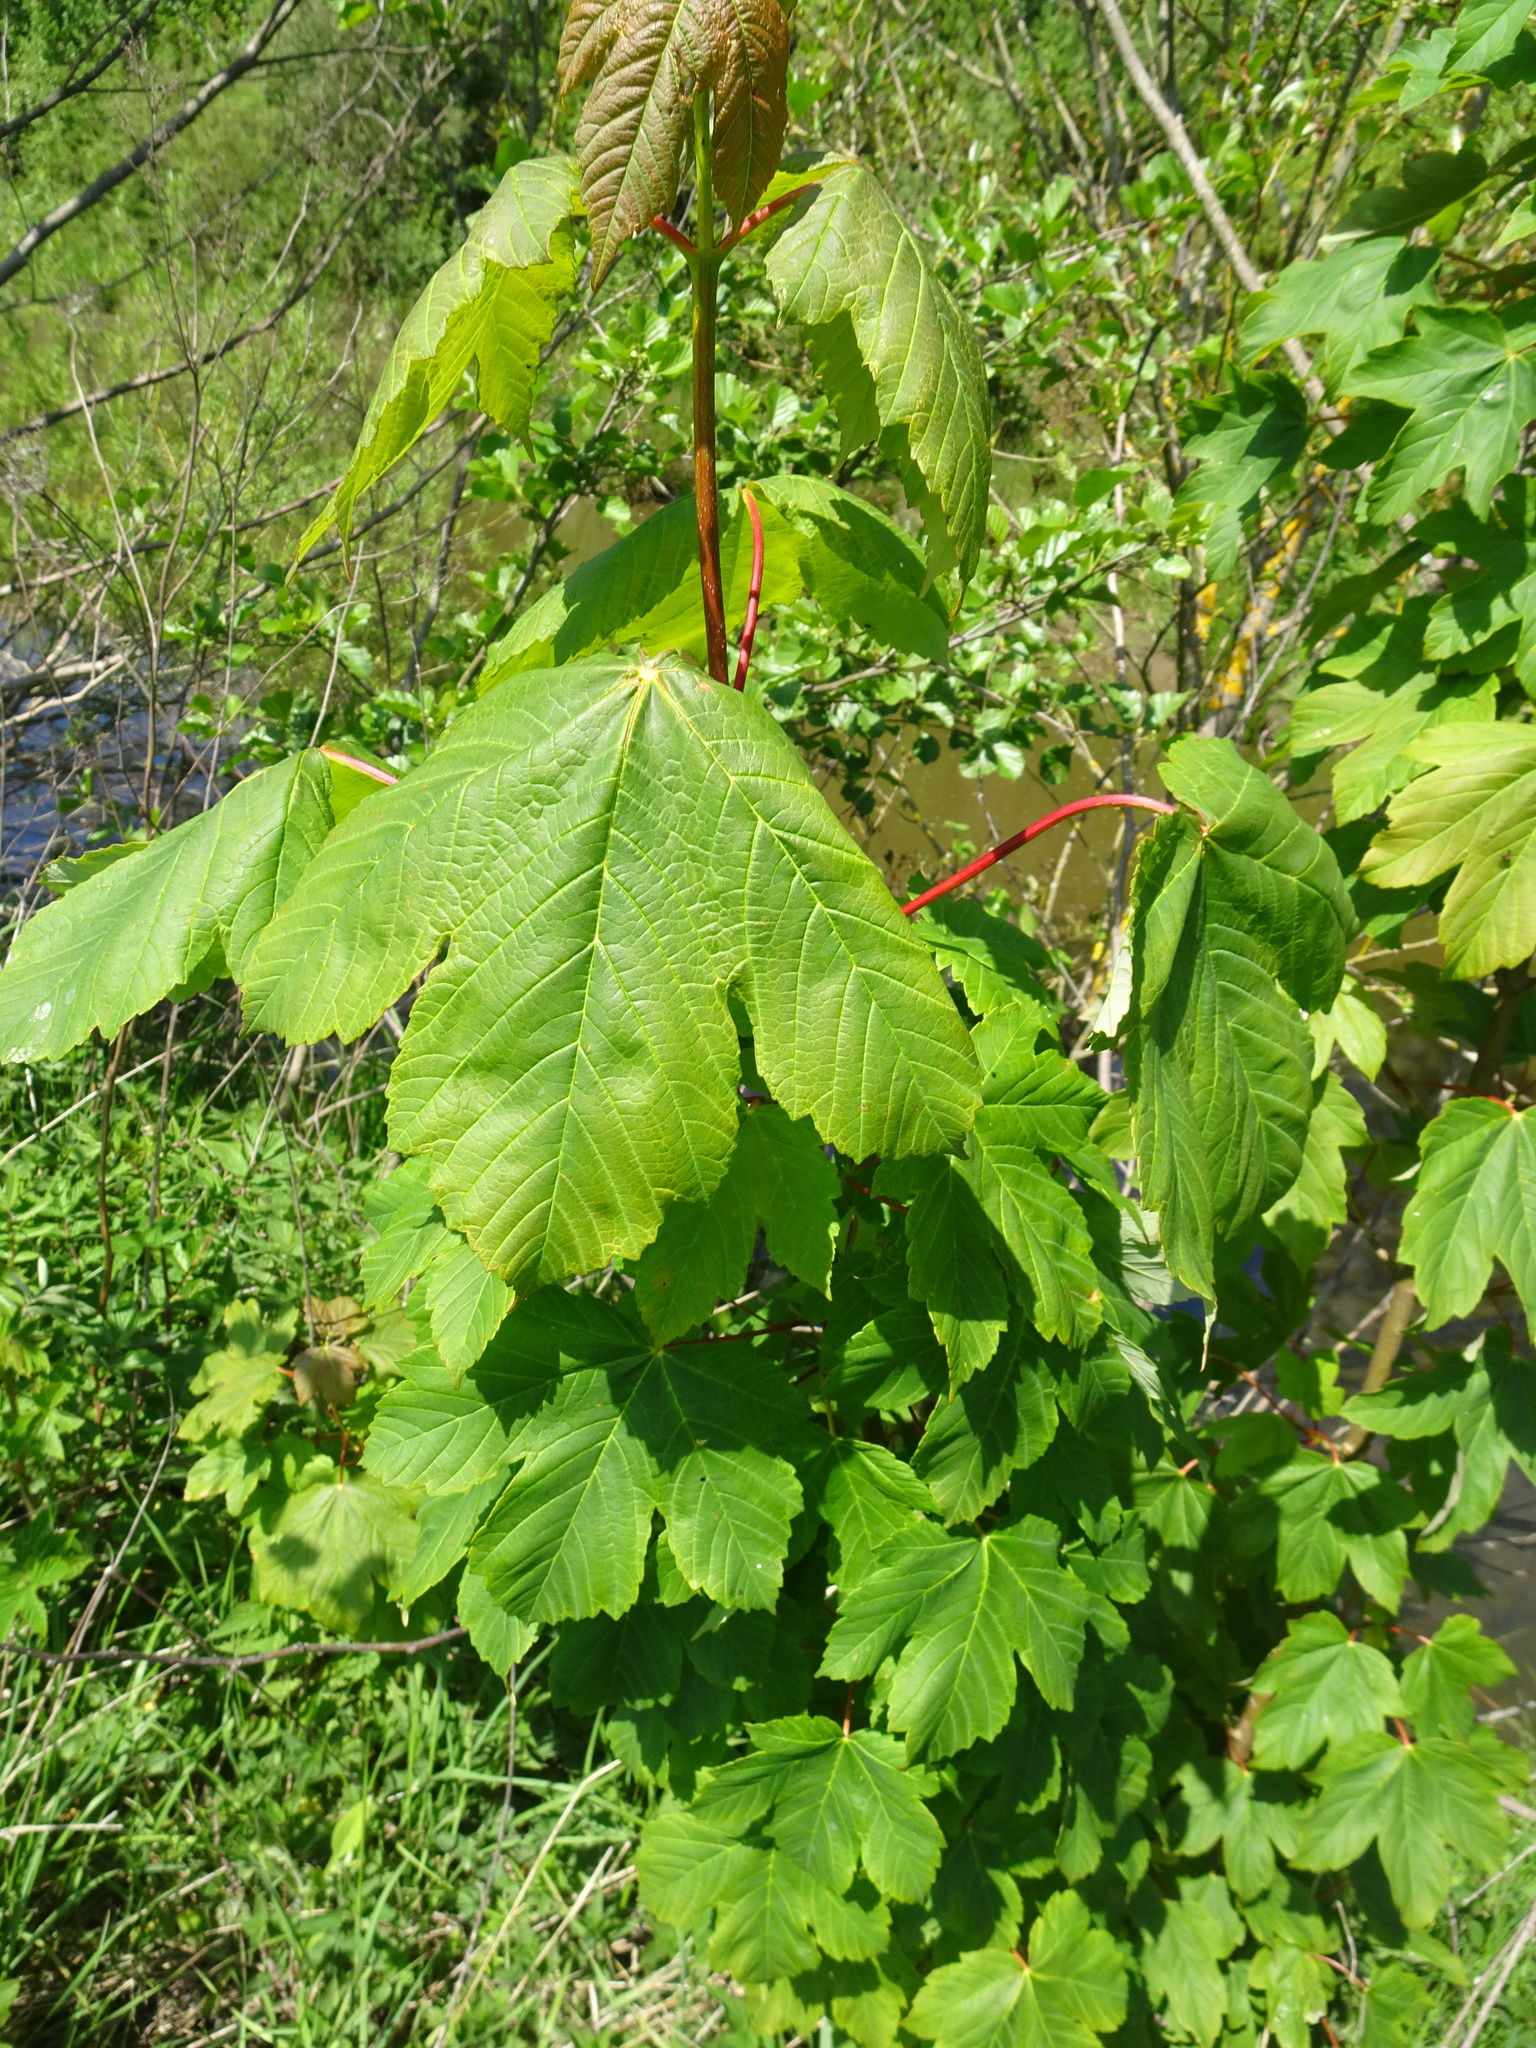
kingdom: Plantae
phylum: Tracheophyta
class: Magnoliopsida
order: Sapindales
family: Sapindaceae
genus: Acer
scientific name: Acer pseudoplatanus
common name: Sycamore
